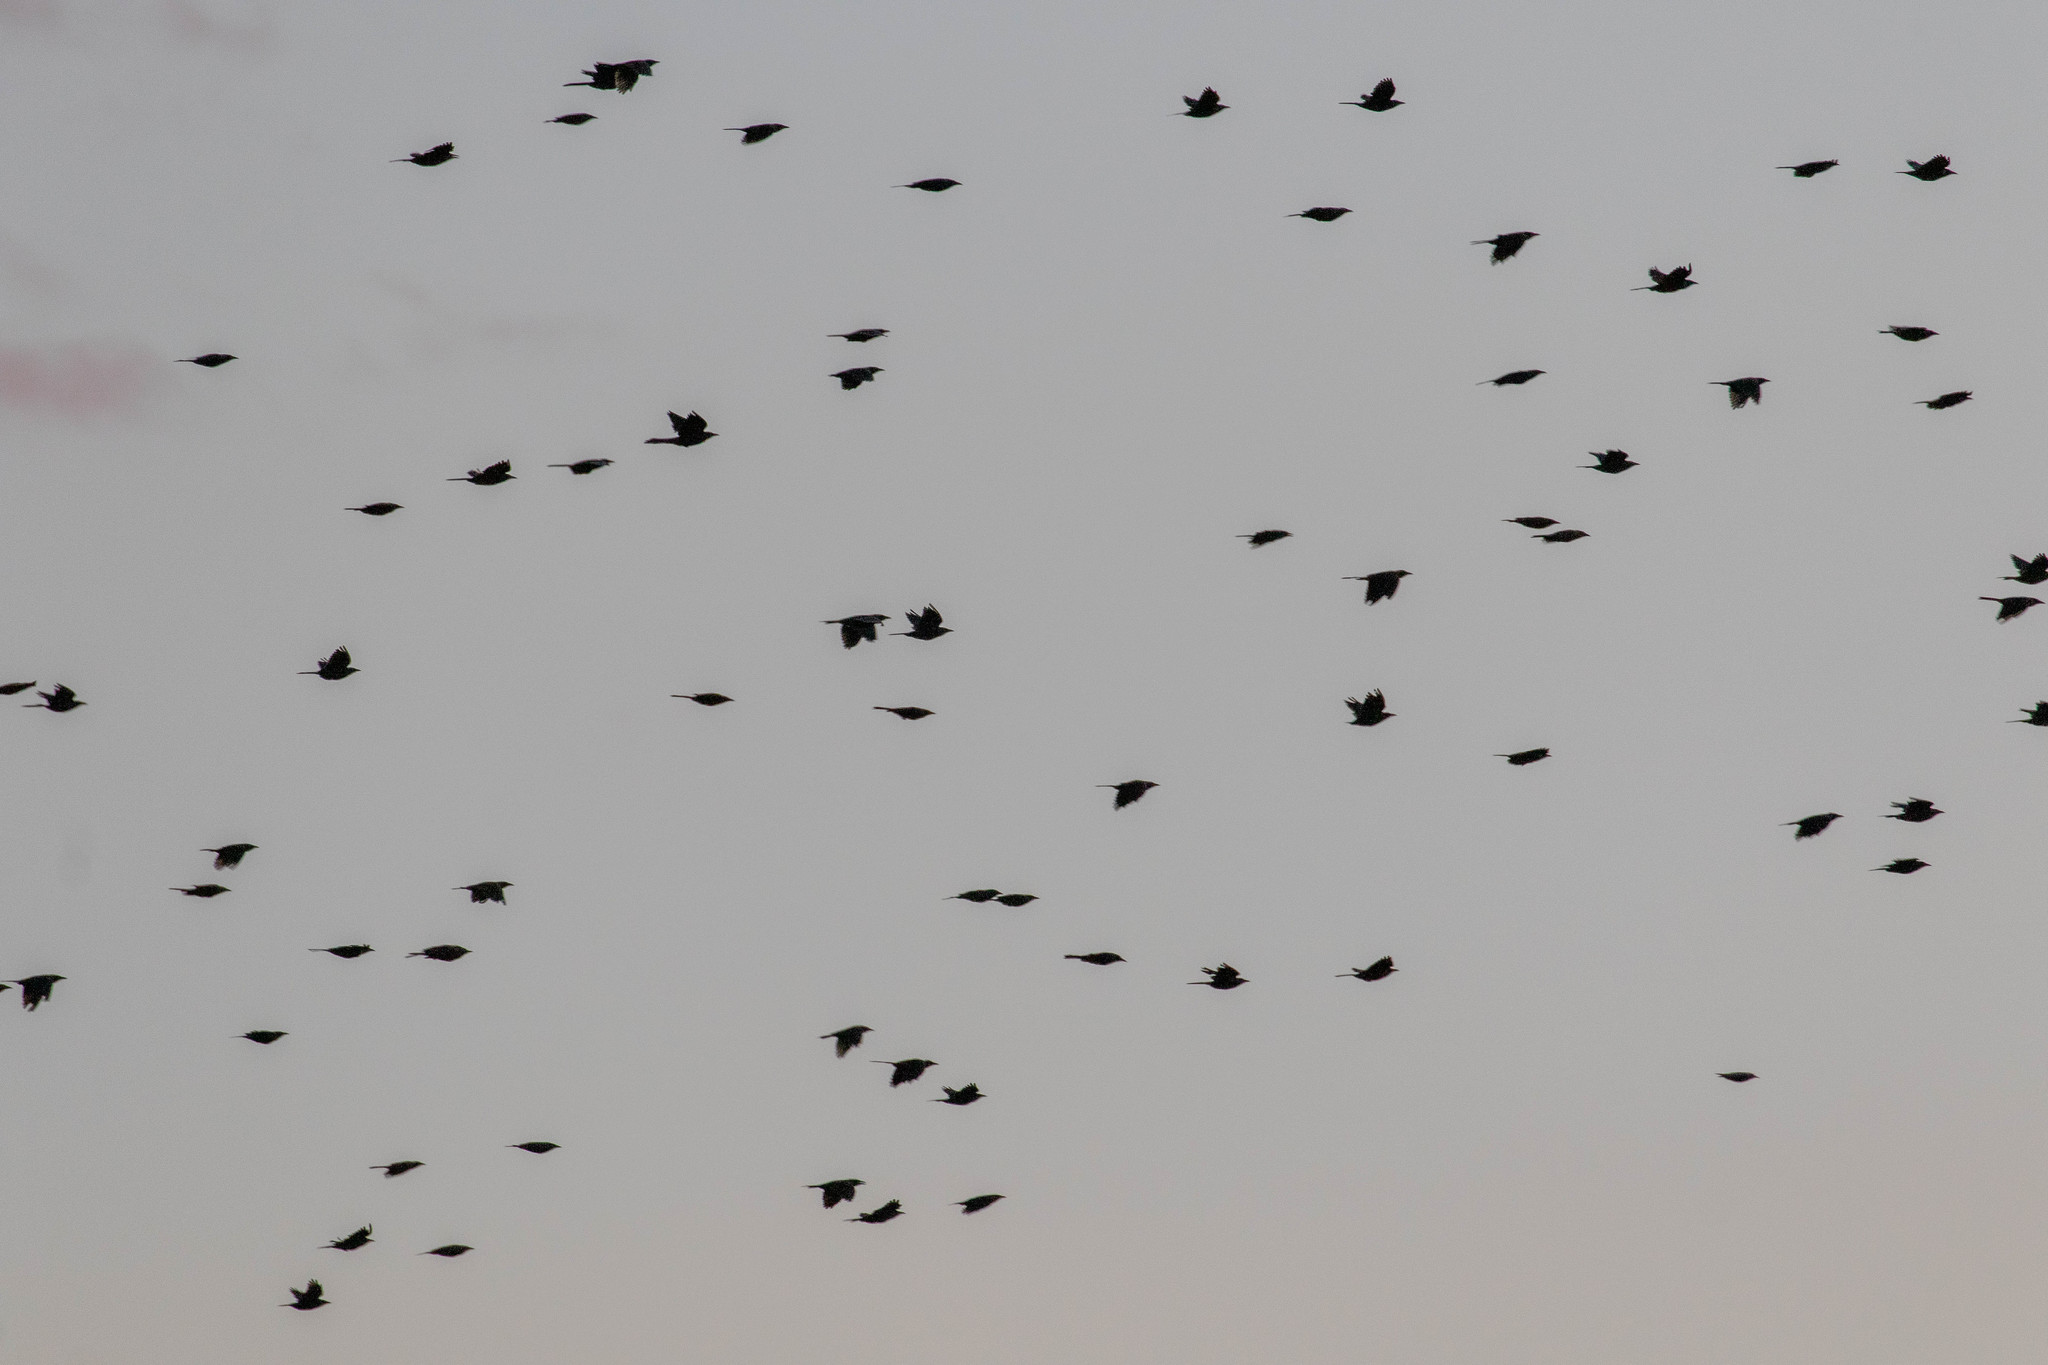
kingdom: Animalia
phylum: Chordata
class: Aves
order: Passeriformes
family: Icteridae
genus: Quiscalus
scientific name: Quiscalus quiscula
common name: Common grackle
